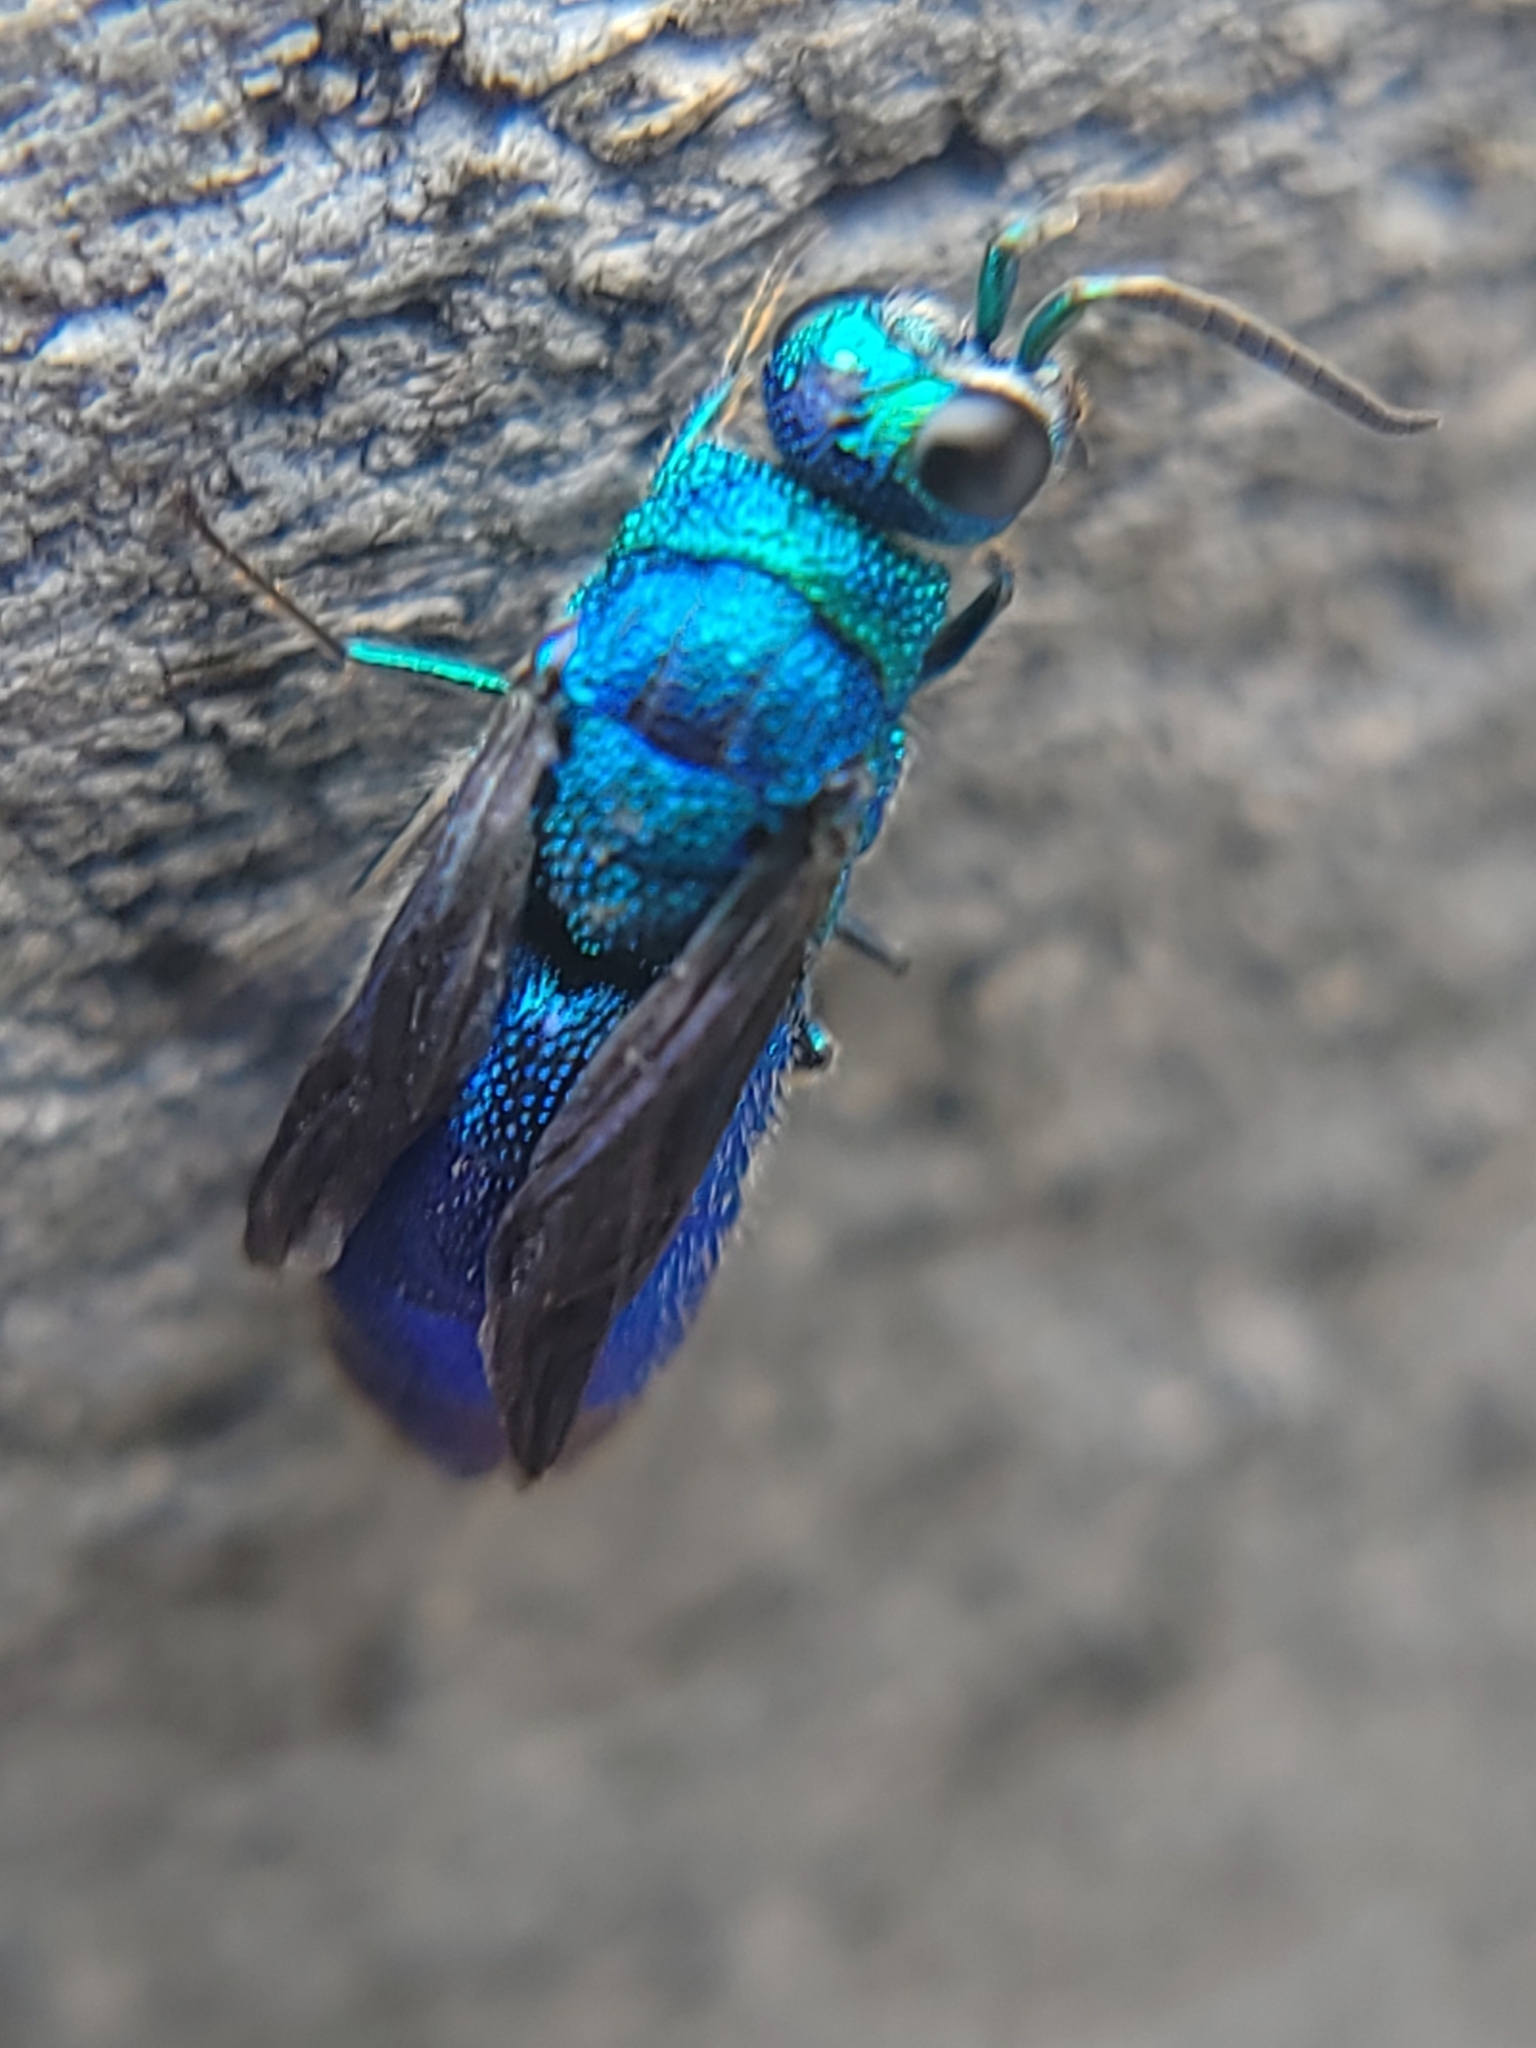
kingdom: Animalia
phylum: Arthropoda
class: Insecta
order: Hymenoptera
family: Chrysididae
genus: Chrysis
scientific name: Chrysis angolensis
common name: Cuckoo wasp
